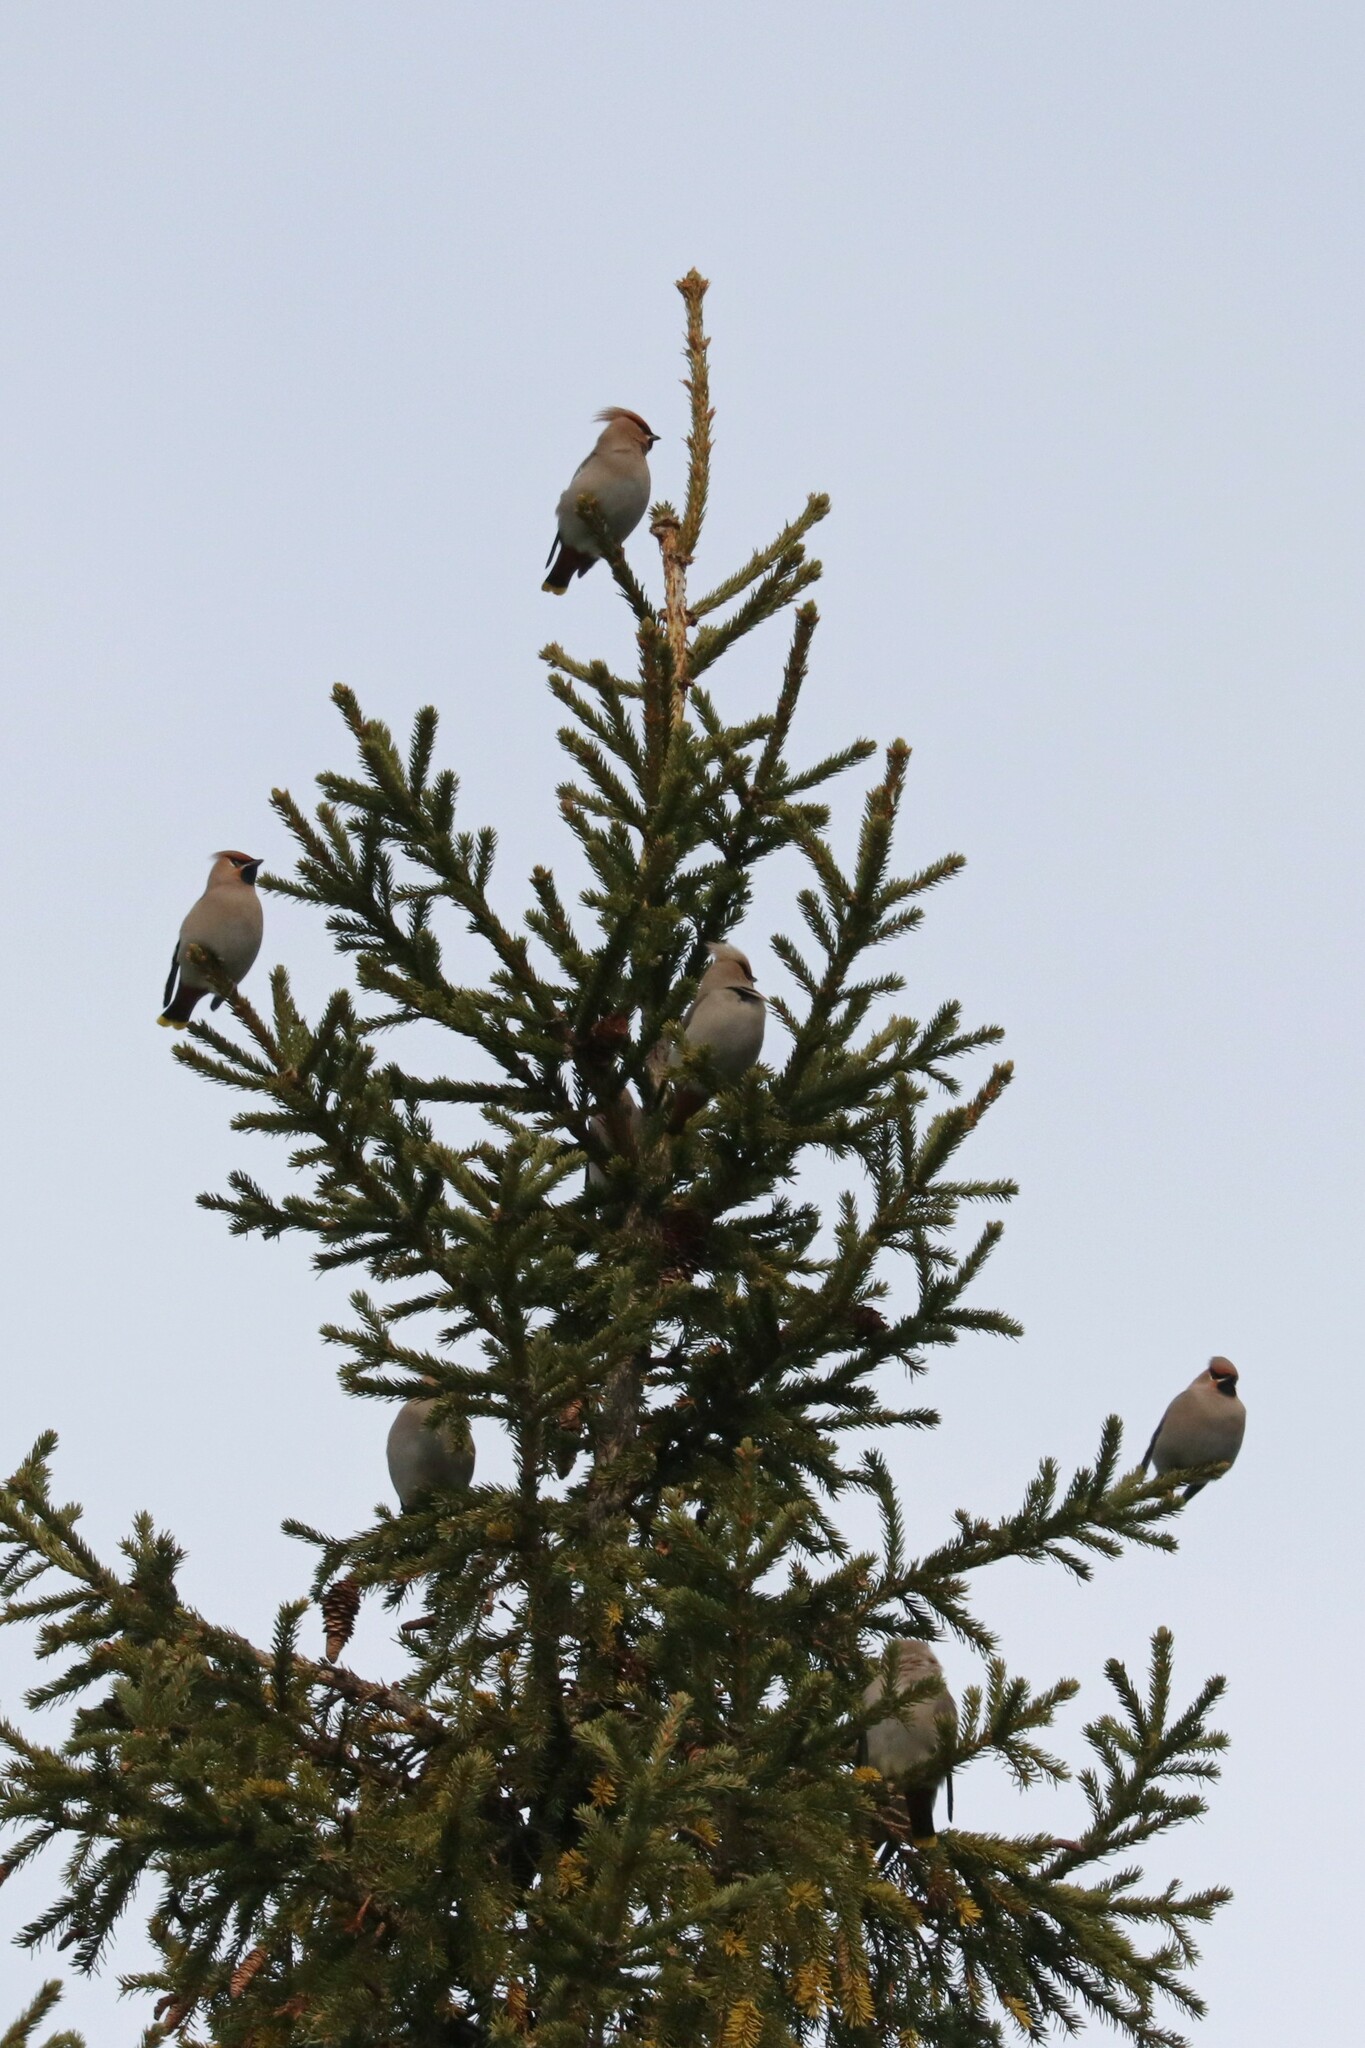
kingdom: Animalia
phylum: Chordata
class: Aves
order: Passeriformes
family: Bombycillidae
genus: Bombycilla
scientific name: Bombycilla garrulus
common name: Bohemian waxwing
